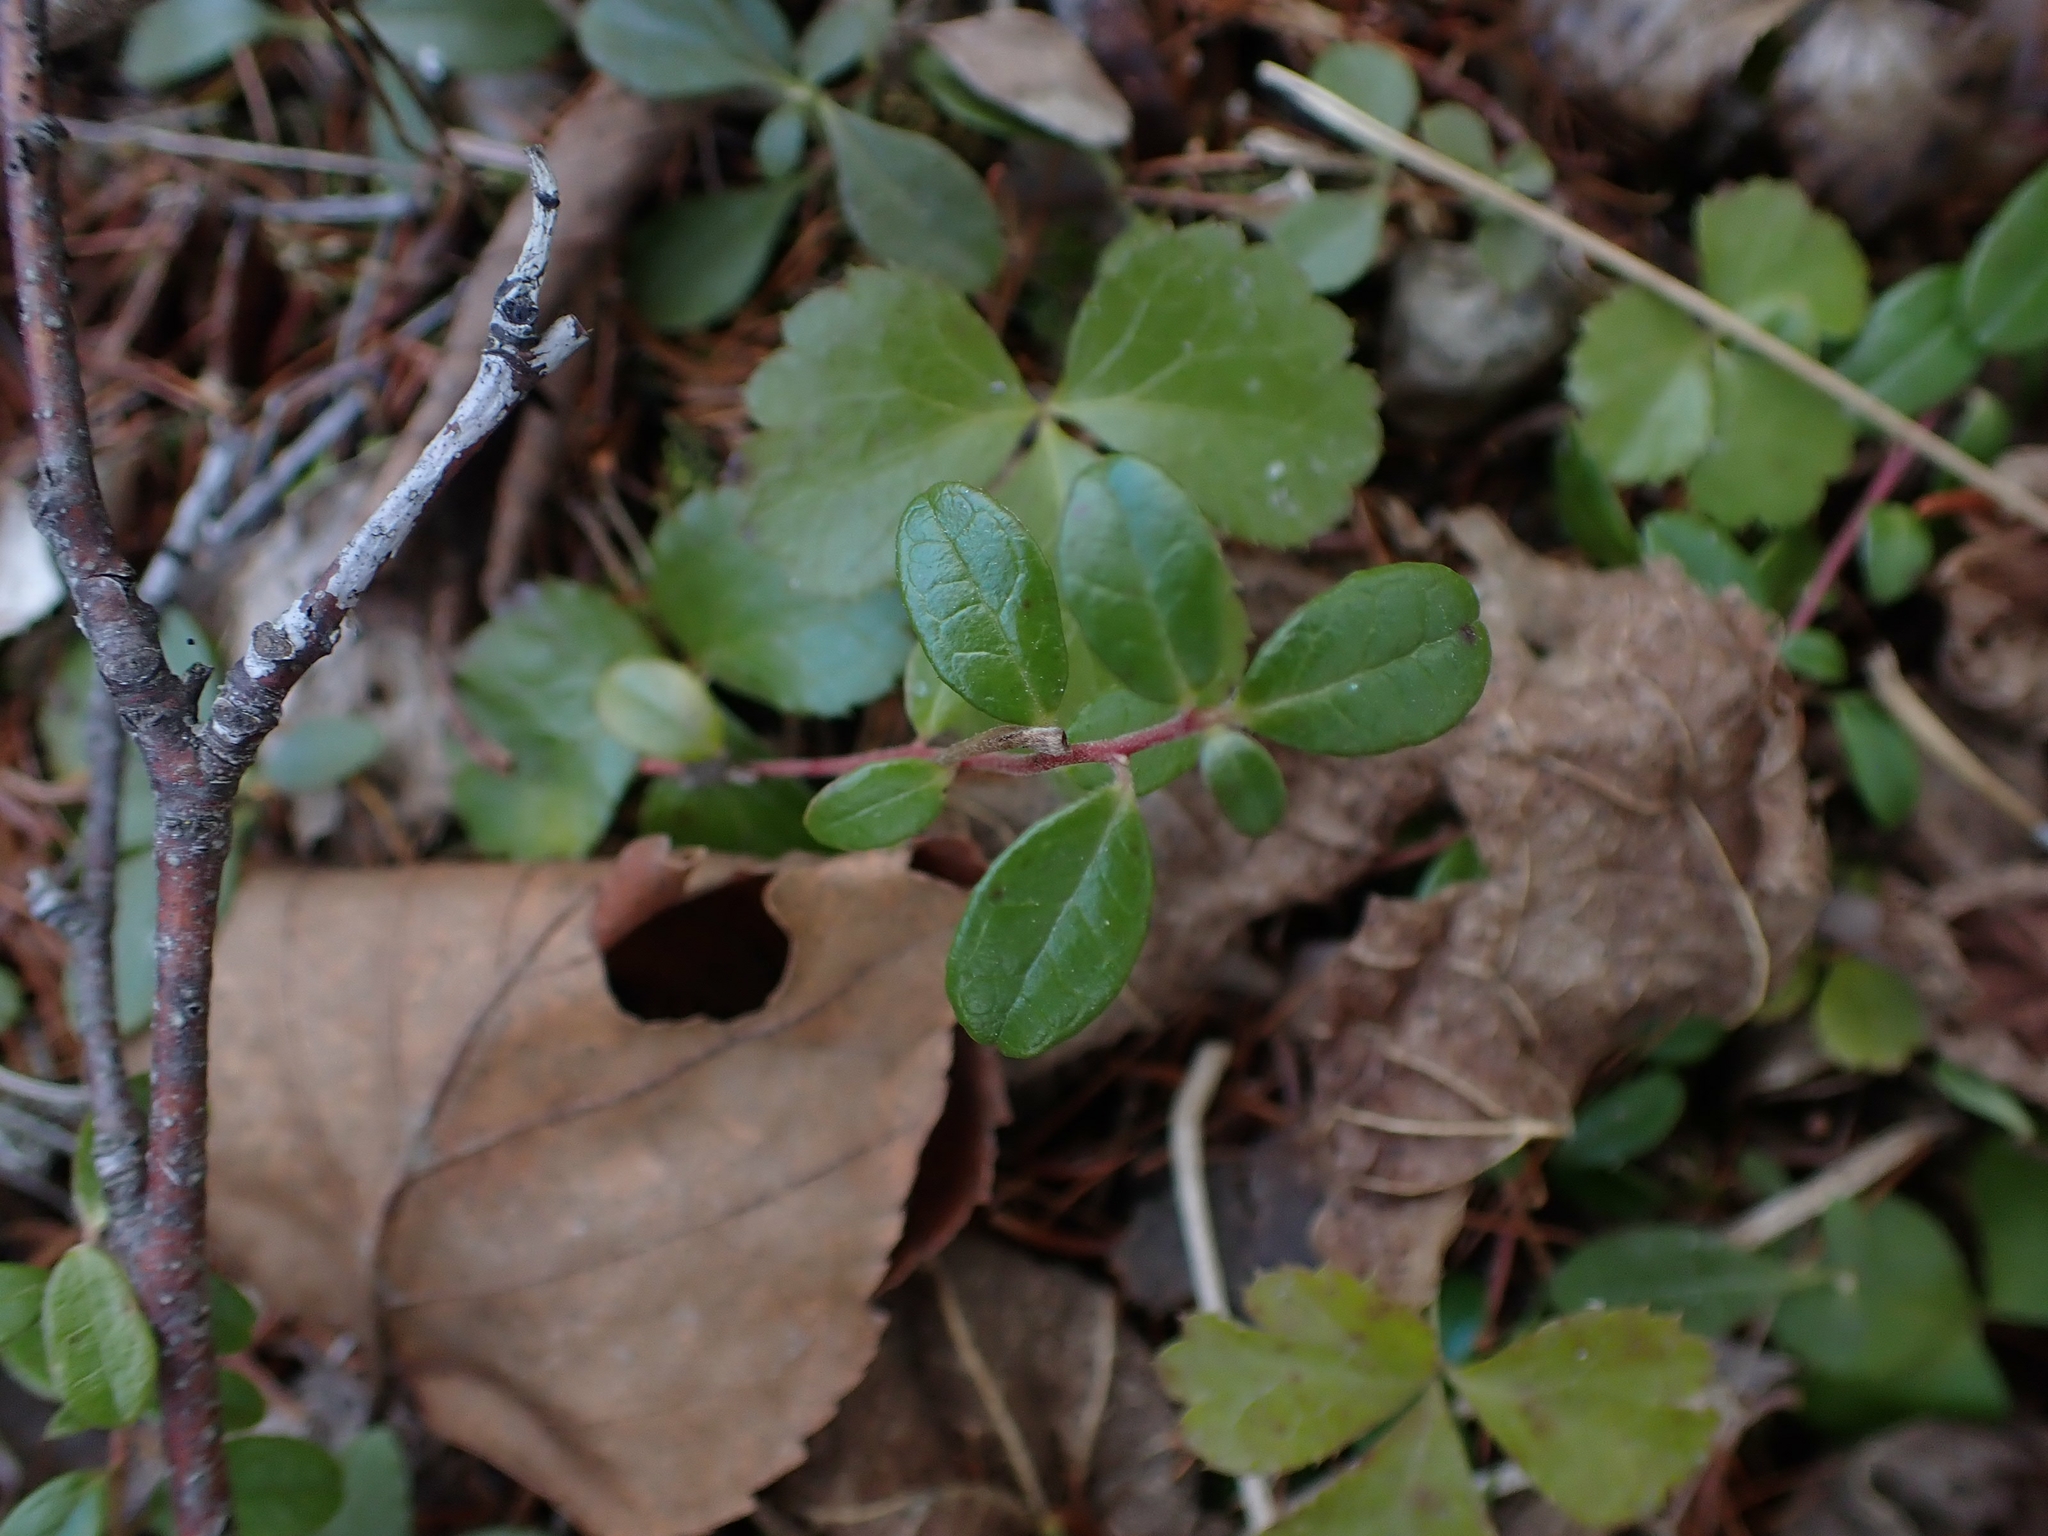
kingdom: Plantae
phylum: Tracheophyta
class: Magnoliopsida
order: Ericales
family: Ericaceae
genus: Vaccinium
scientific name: Vaccinium vitis-idaea
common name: Cowberry
